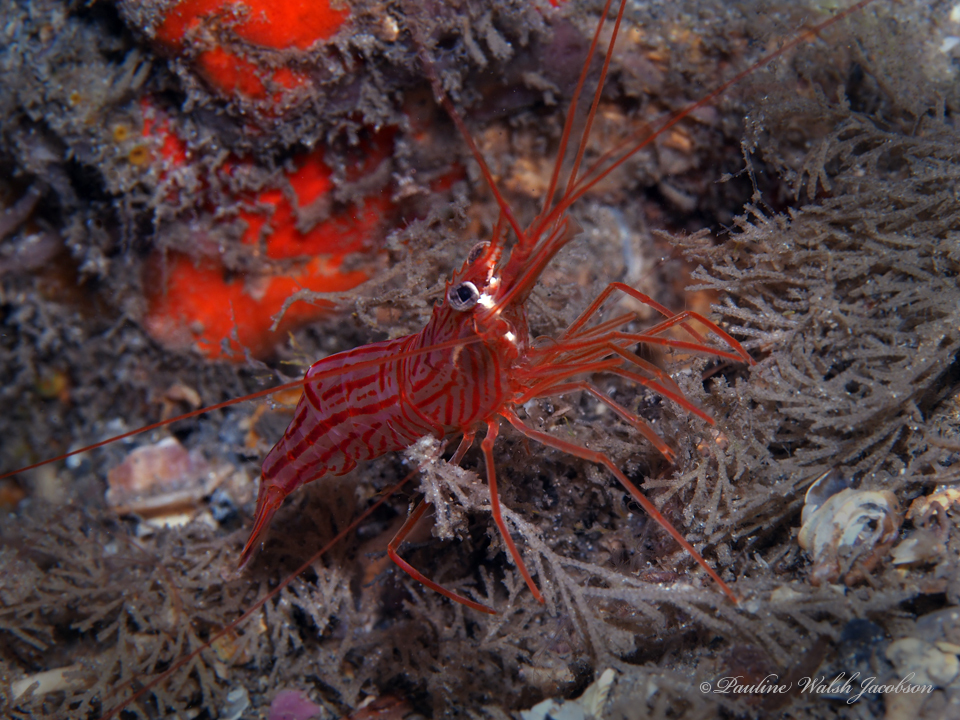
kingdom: Animalia
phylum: Arthropoda
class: Malacostraca
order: Decapoda
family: Lysmatidae
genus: Lysmata
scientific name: Lysmata rafa
